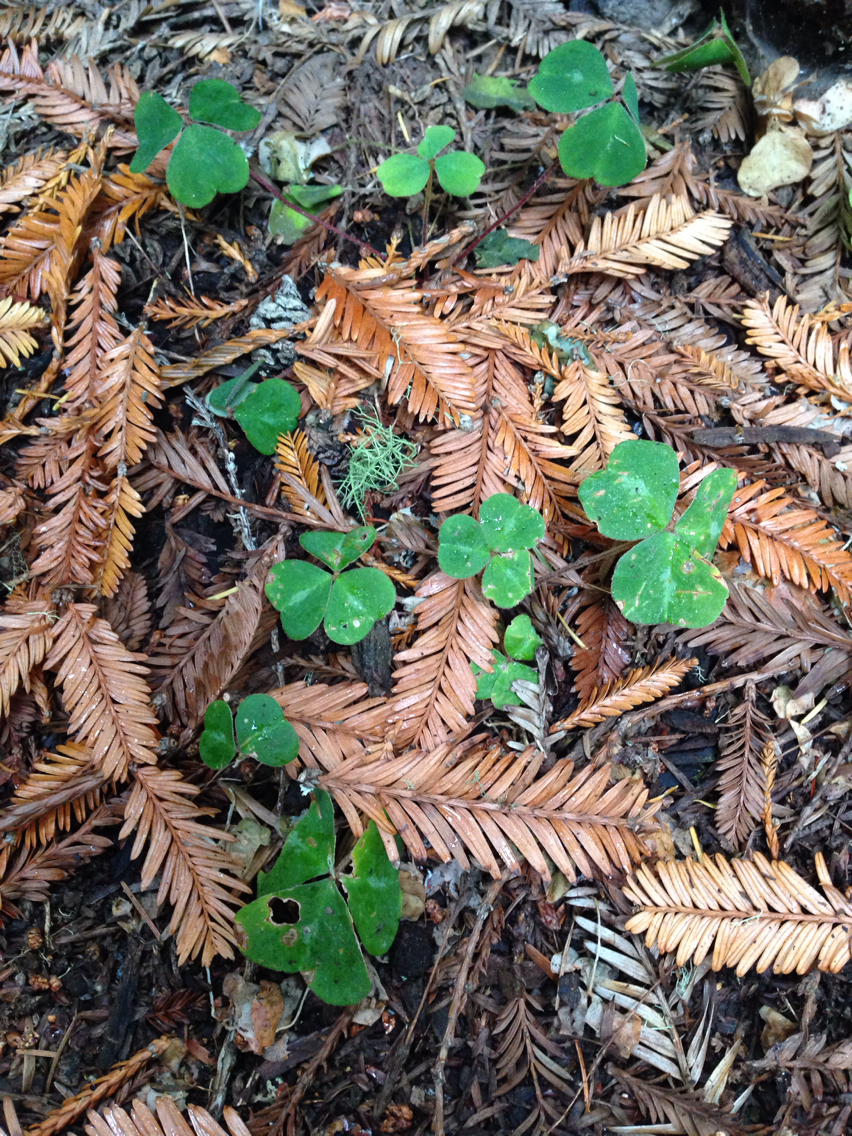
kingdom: Plantae
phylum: Tracheophyta
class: Magnoliopsida
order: Oxalidales
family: Oxalidaceae
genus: Oxalis
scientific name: Oxalis oregana
